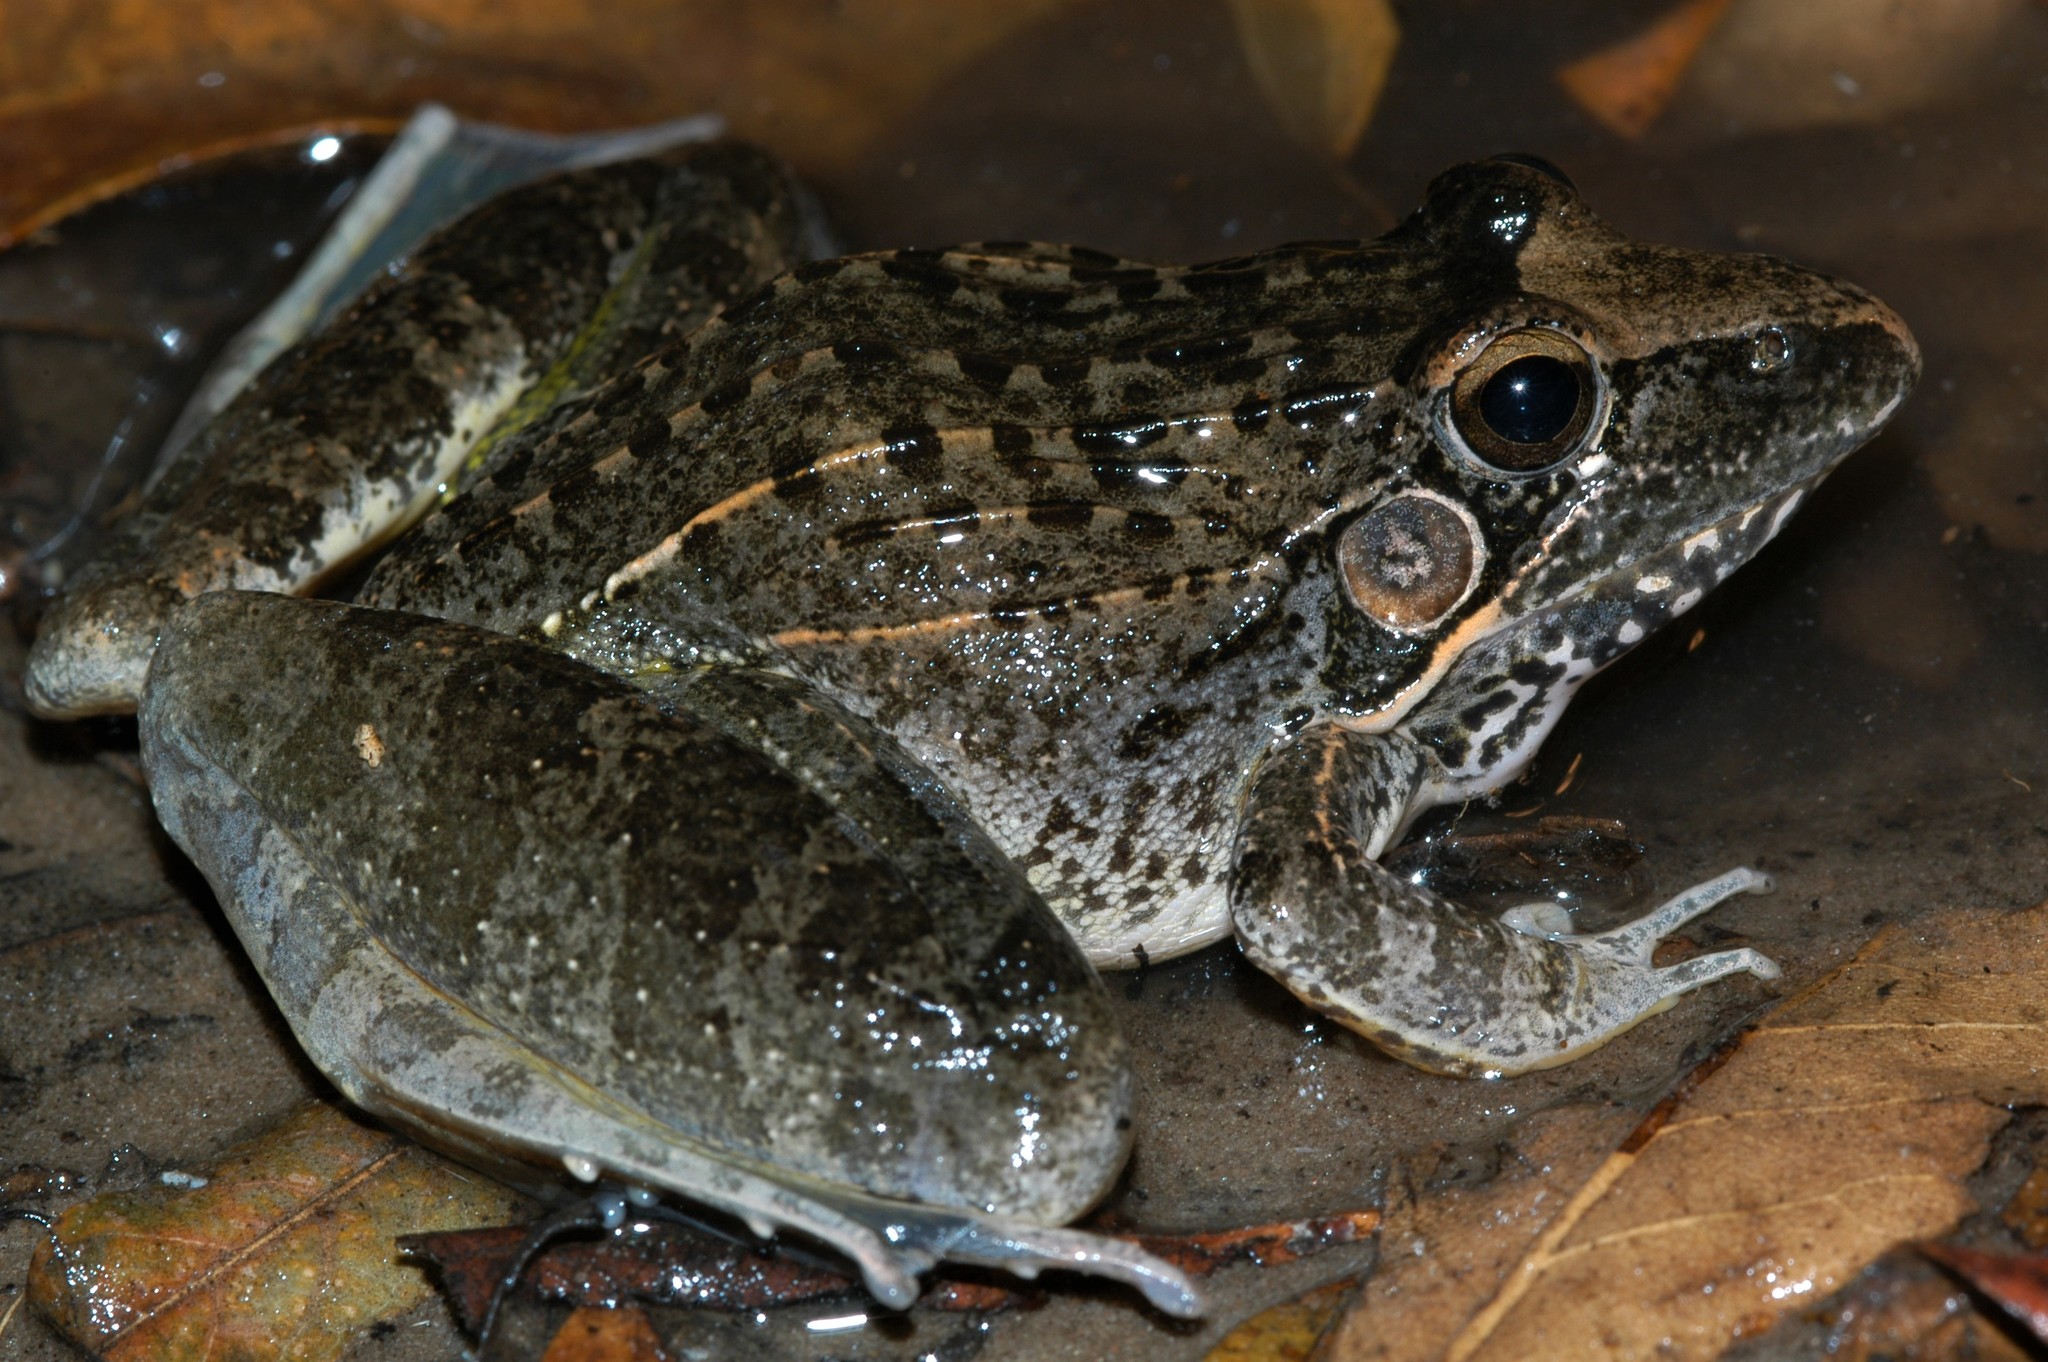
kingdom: Animalia
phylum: Chordata
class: Amphibia
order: Anura
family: Ptychadenidae
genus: Ptychadena
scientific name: Ptychadena oxyrhynchus
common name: Sharp-nosed ridged frog
